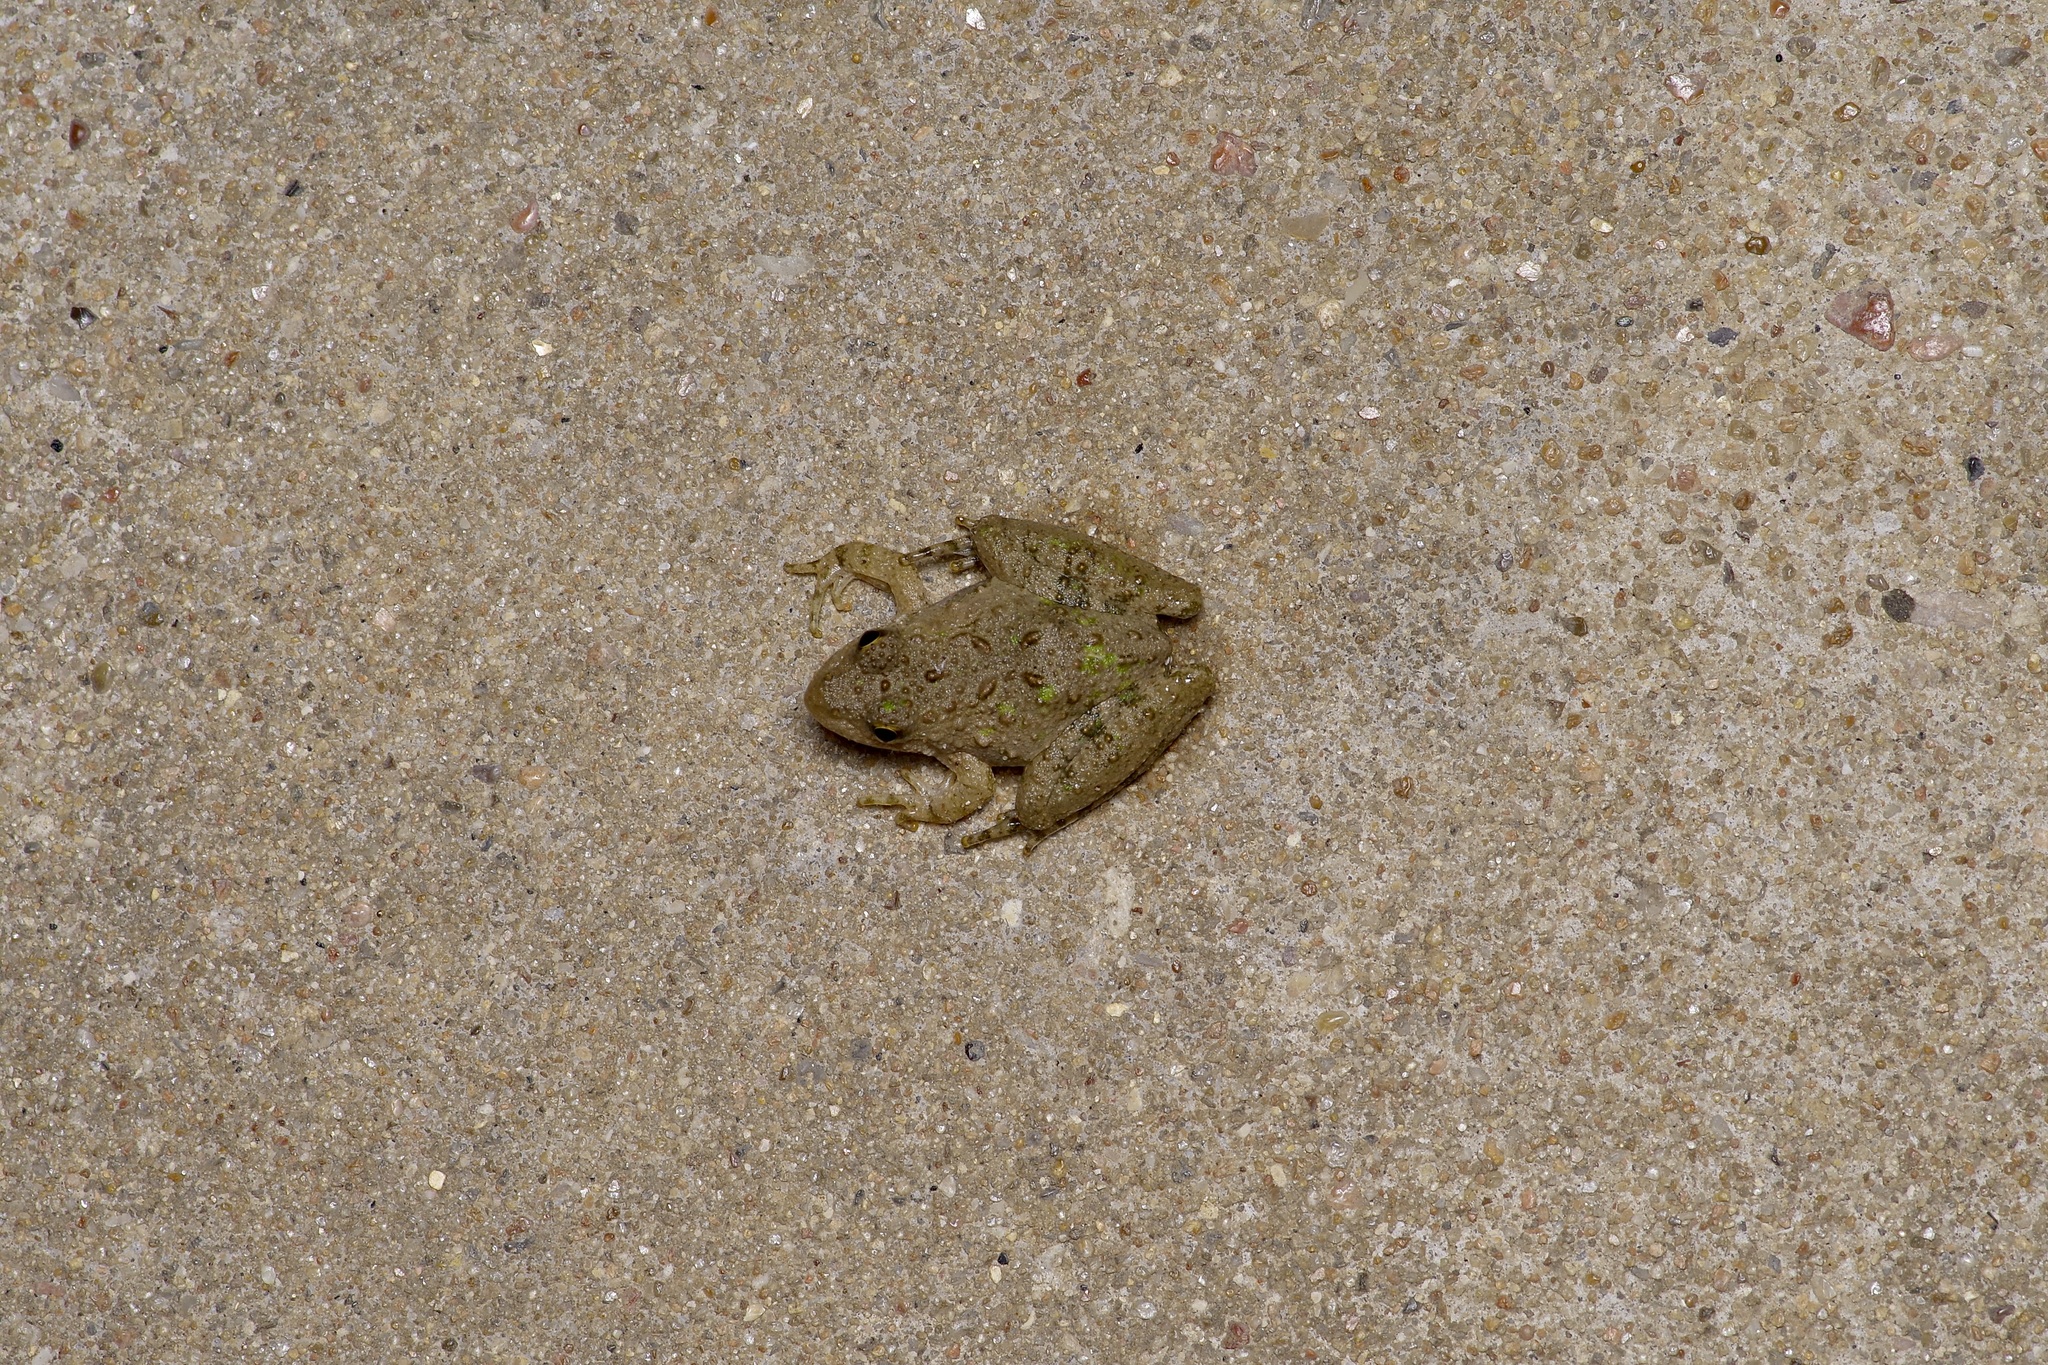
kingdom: Animalia
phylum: Chordata
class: Amphibia
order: Anura
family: Hylidae
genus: Acris
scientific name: Acris blanchardi
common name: Blanchard's cricket frog
